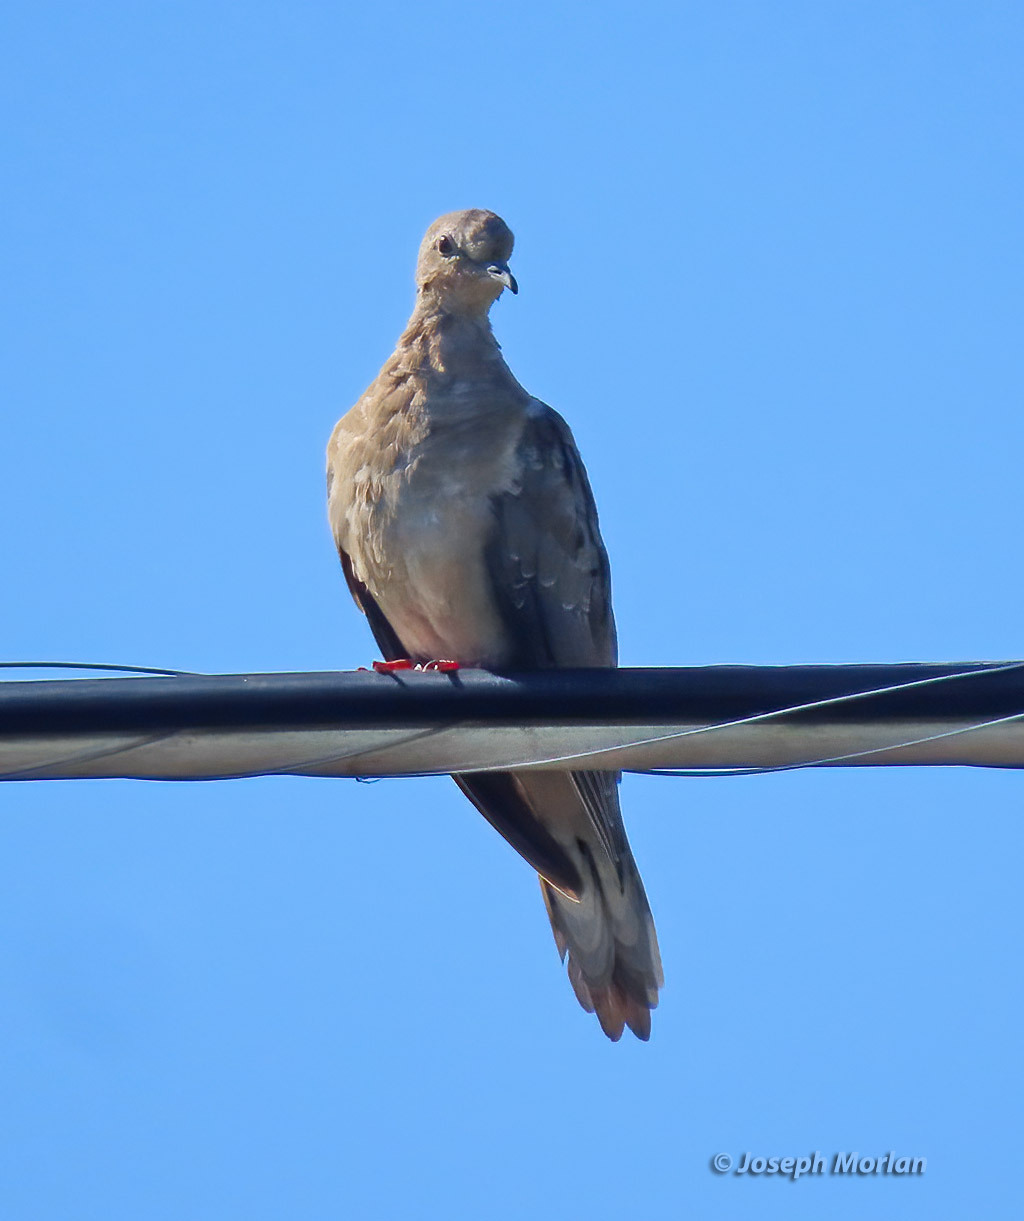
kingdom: Animalia
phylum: Chordata
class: Aves
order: Columbiformes
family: Columbidae
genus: Zenaida
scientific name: Zenaida macroura
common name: Mourning dove
